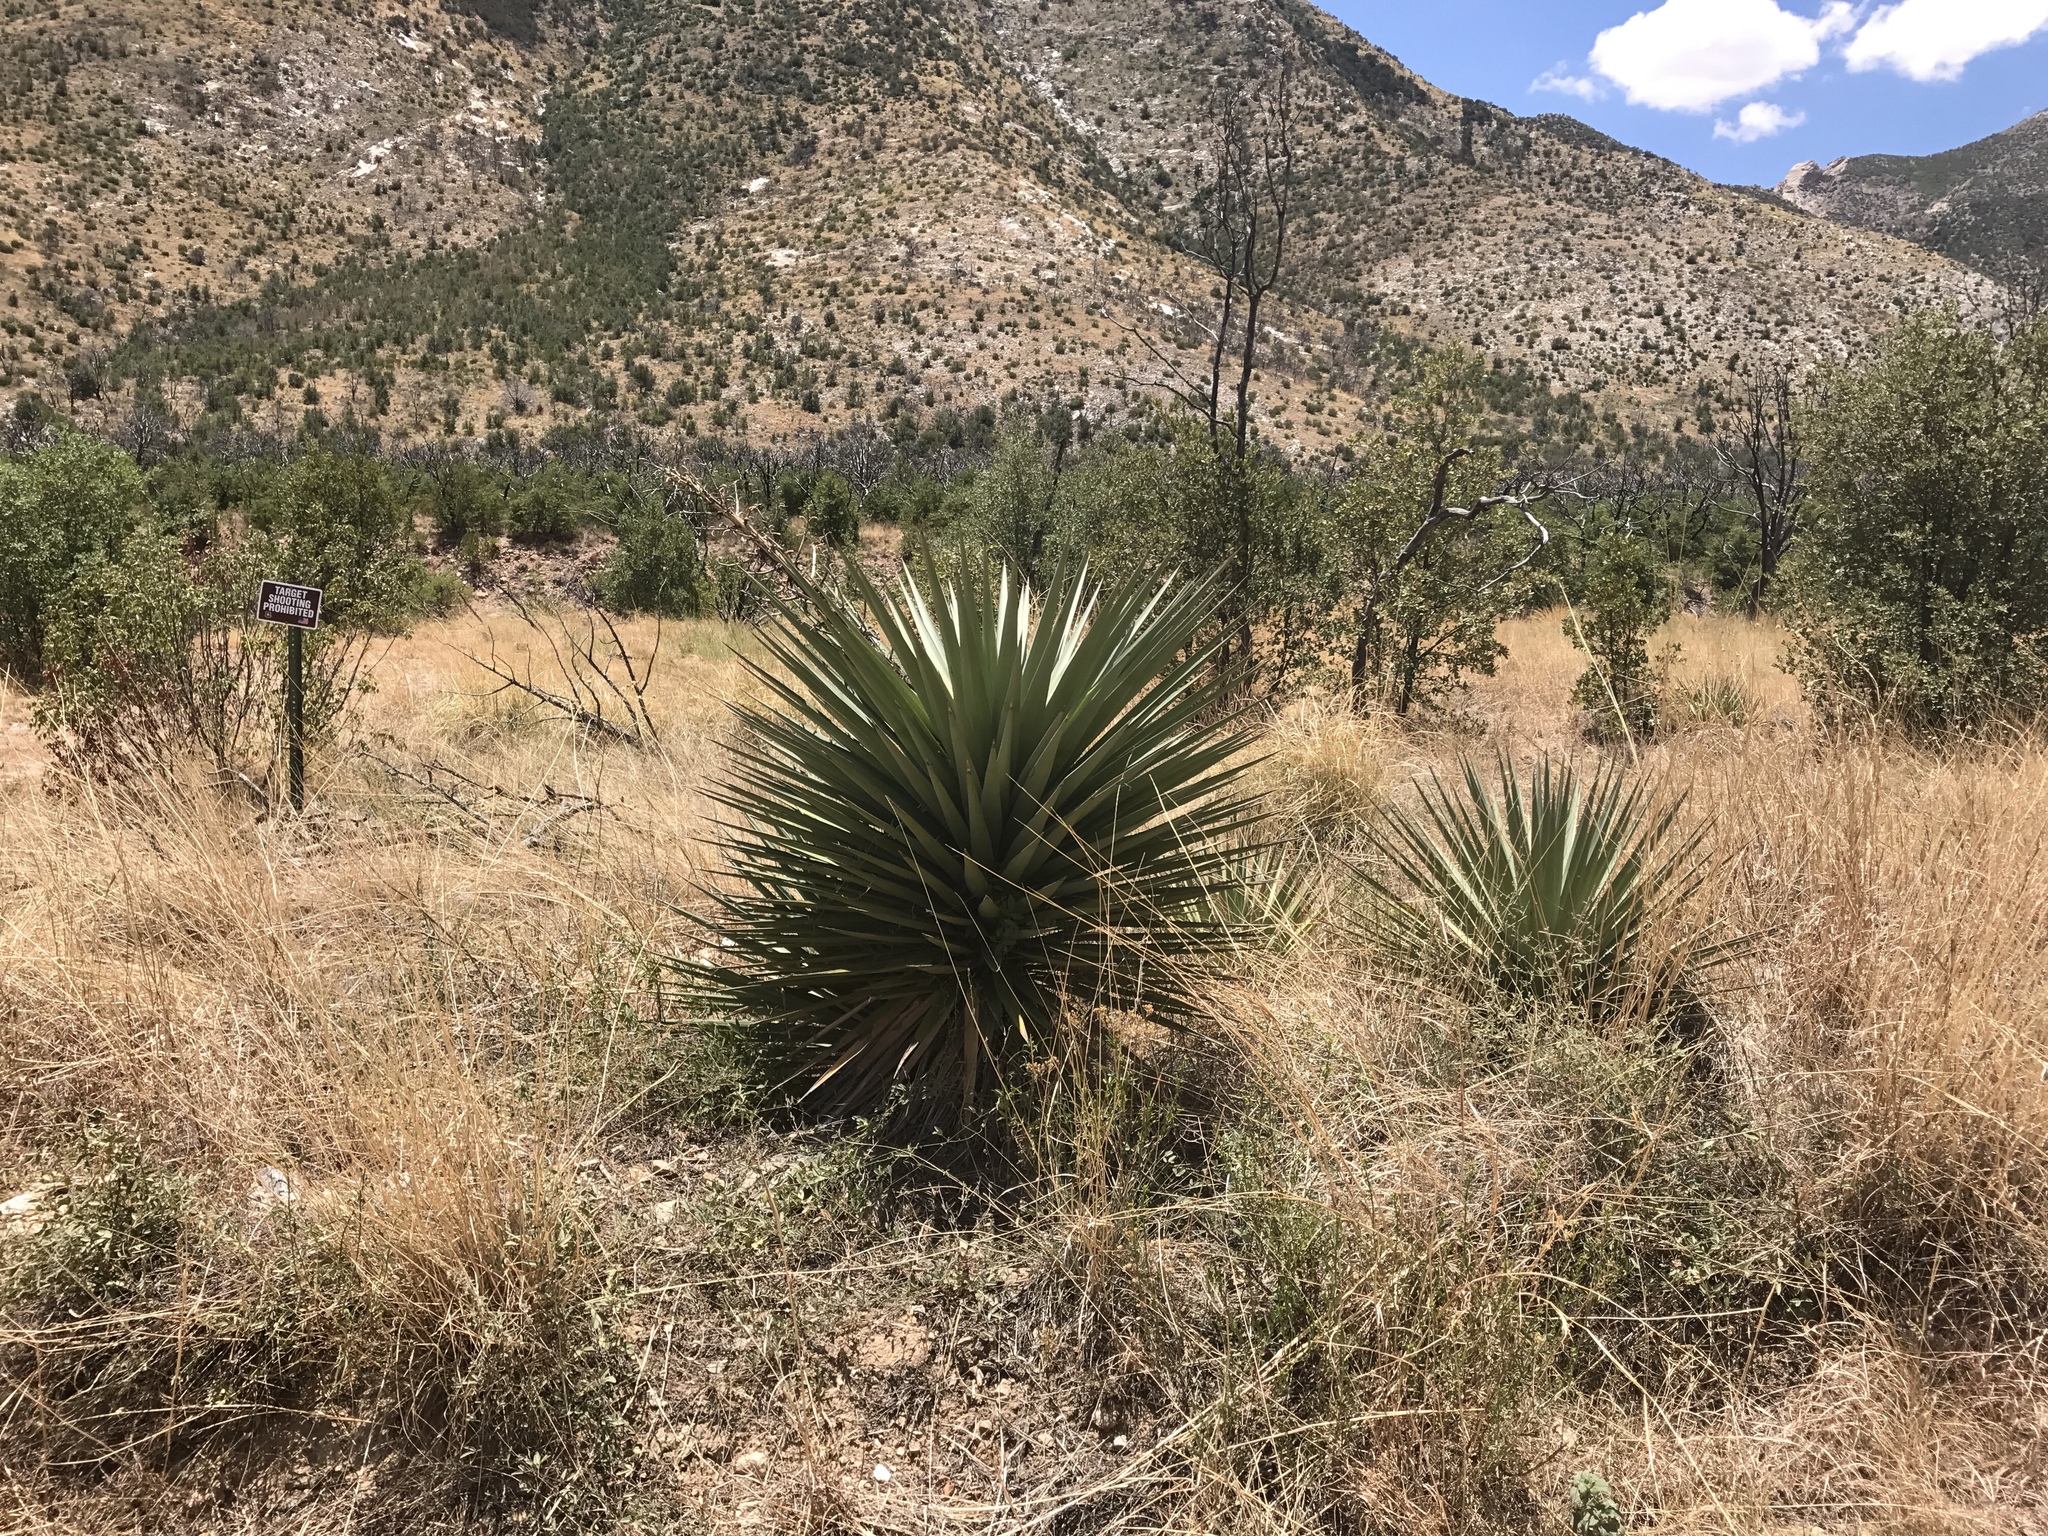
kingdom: Plantae
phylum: Tracheophyta
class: Liliopsida
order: Asparagales
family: Asparagaceae
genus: Yucca
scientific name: Yucca schottii
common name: Hoary yucca
